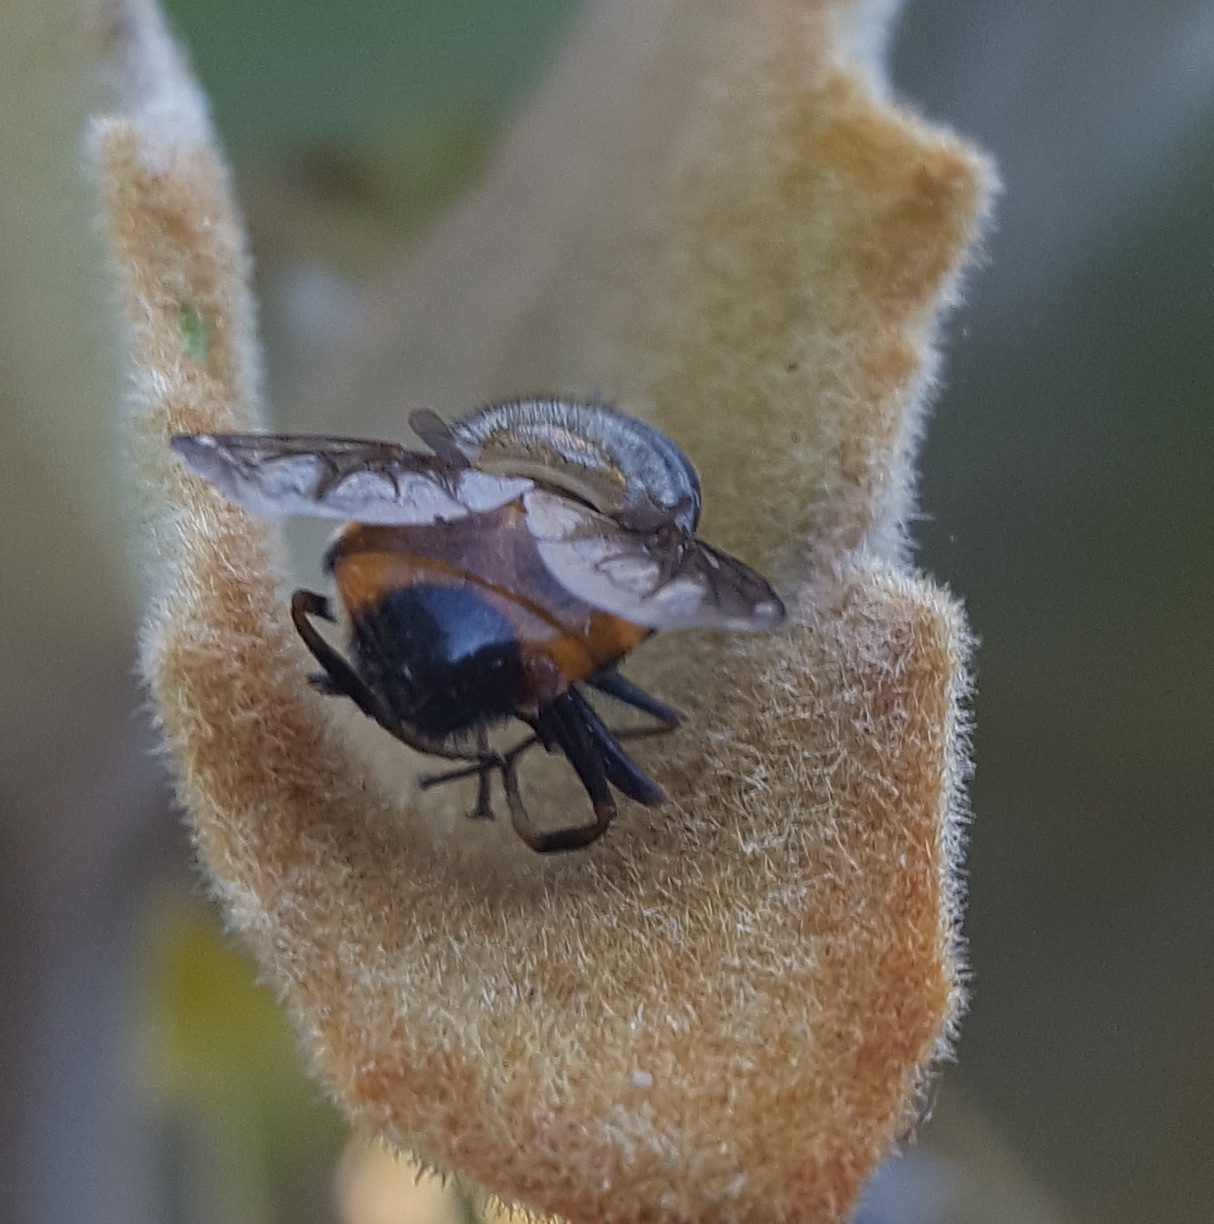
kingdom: Animalia
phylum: Arthropoda
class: Insecta
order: Diptera
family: Syrphidae
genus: Copestylum
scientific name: Copestylum haagii
